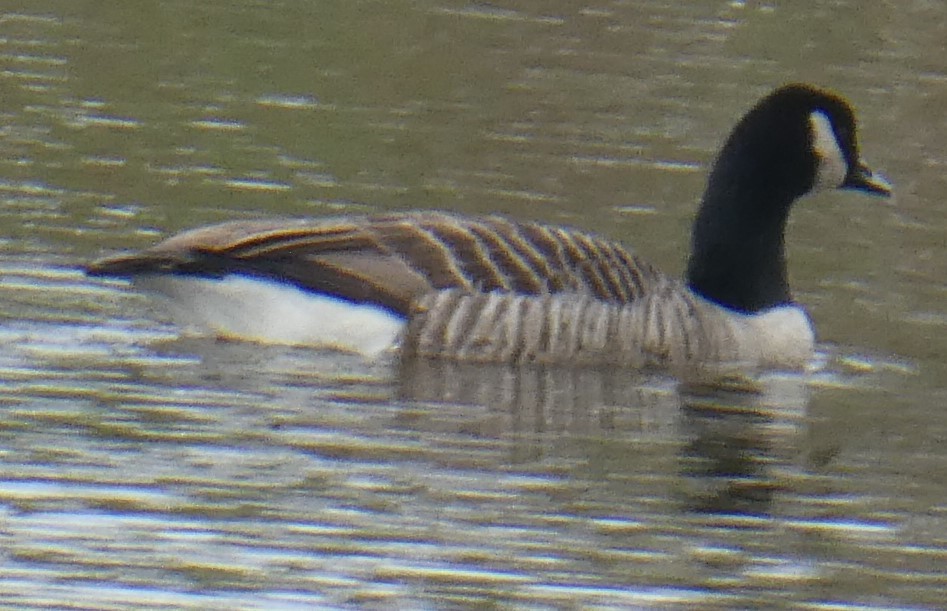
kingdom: Animalia
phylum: Chordata
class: Aves
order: Anseriformes
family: Anatidae
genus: Branta
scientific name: Branta canadensis
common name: Canada goose
